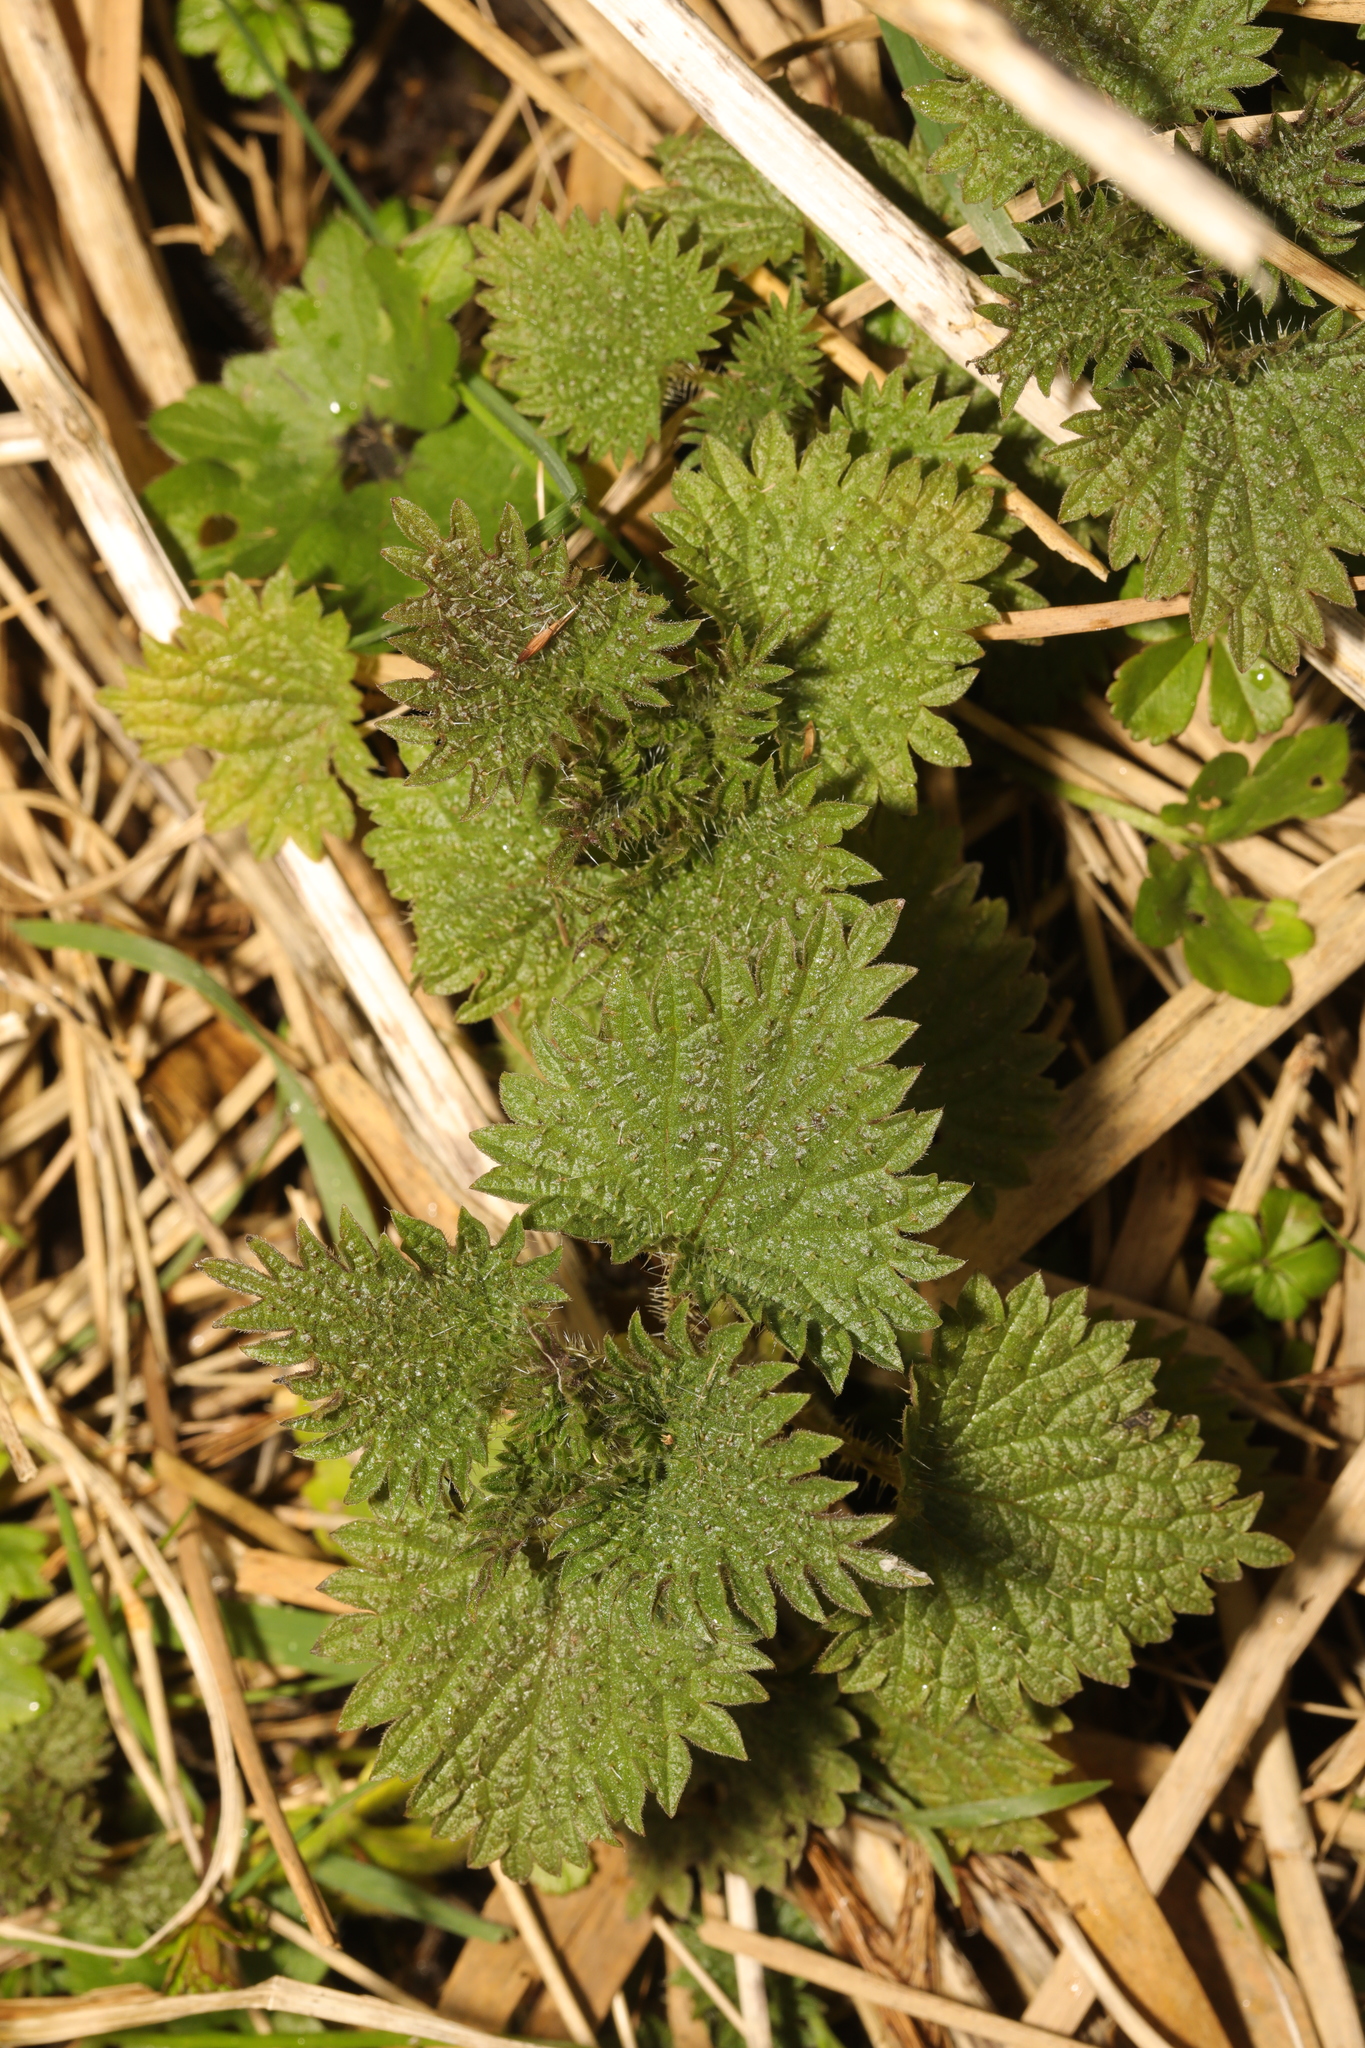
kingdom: Plantae
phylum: Tracheophyta
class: Magnoliopsida
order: Rosales
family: Urticaceae
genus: Urtica
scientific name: Urtica dioica
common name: Common nettle
